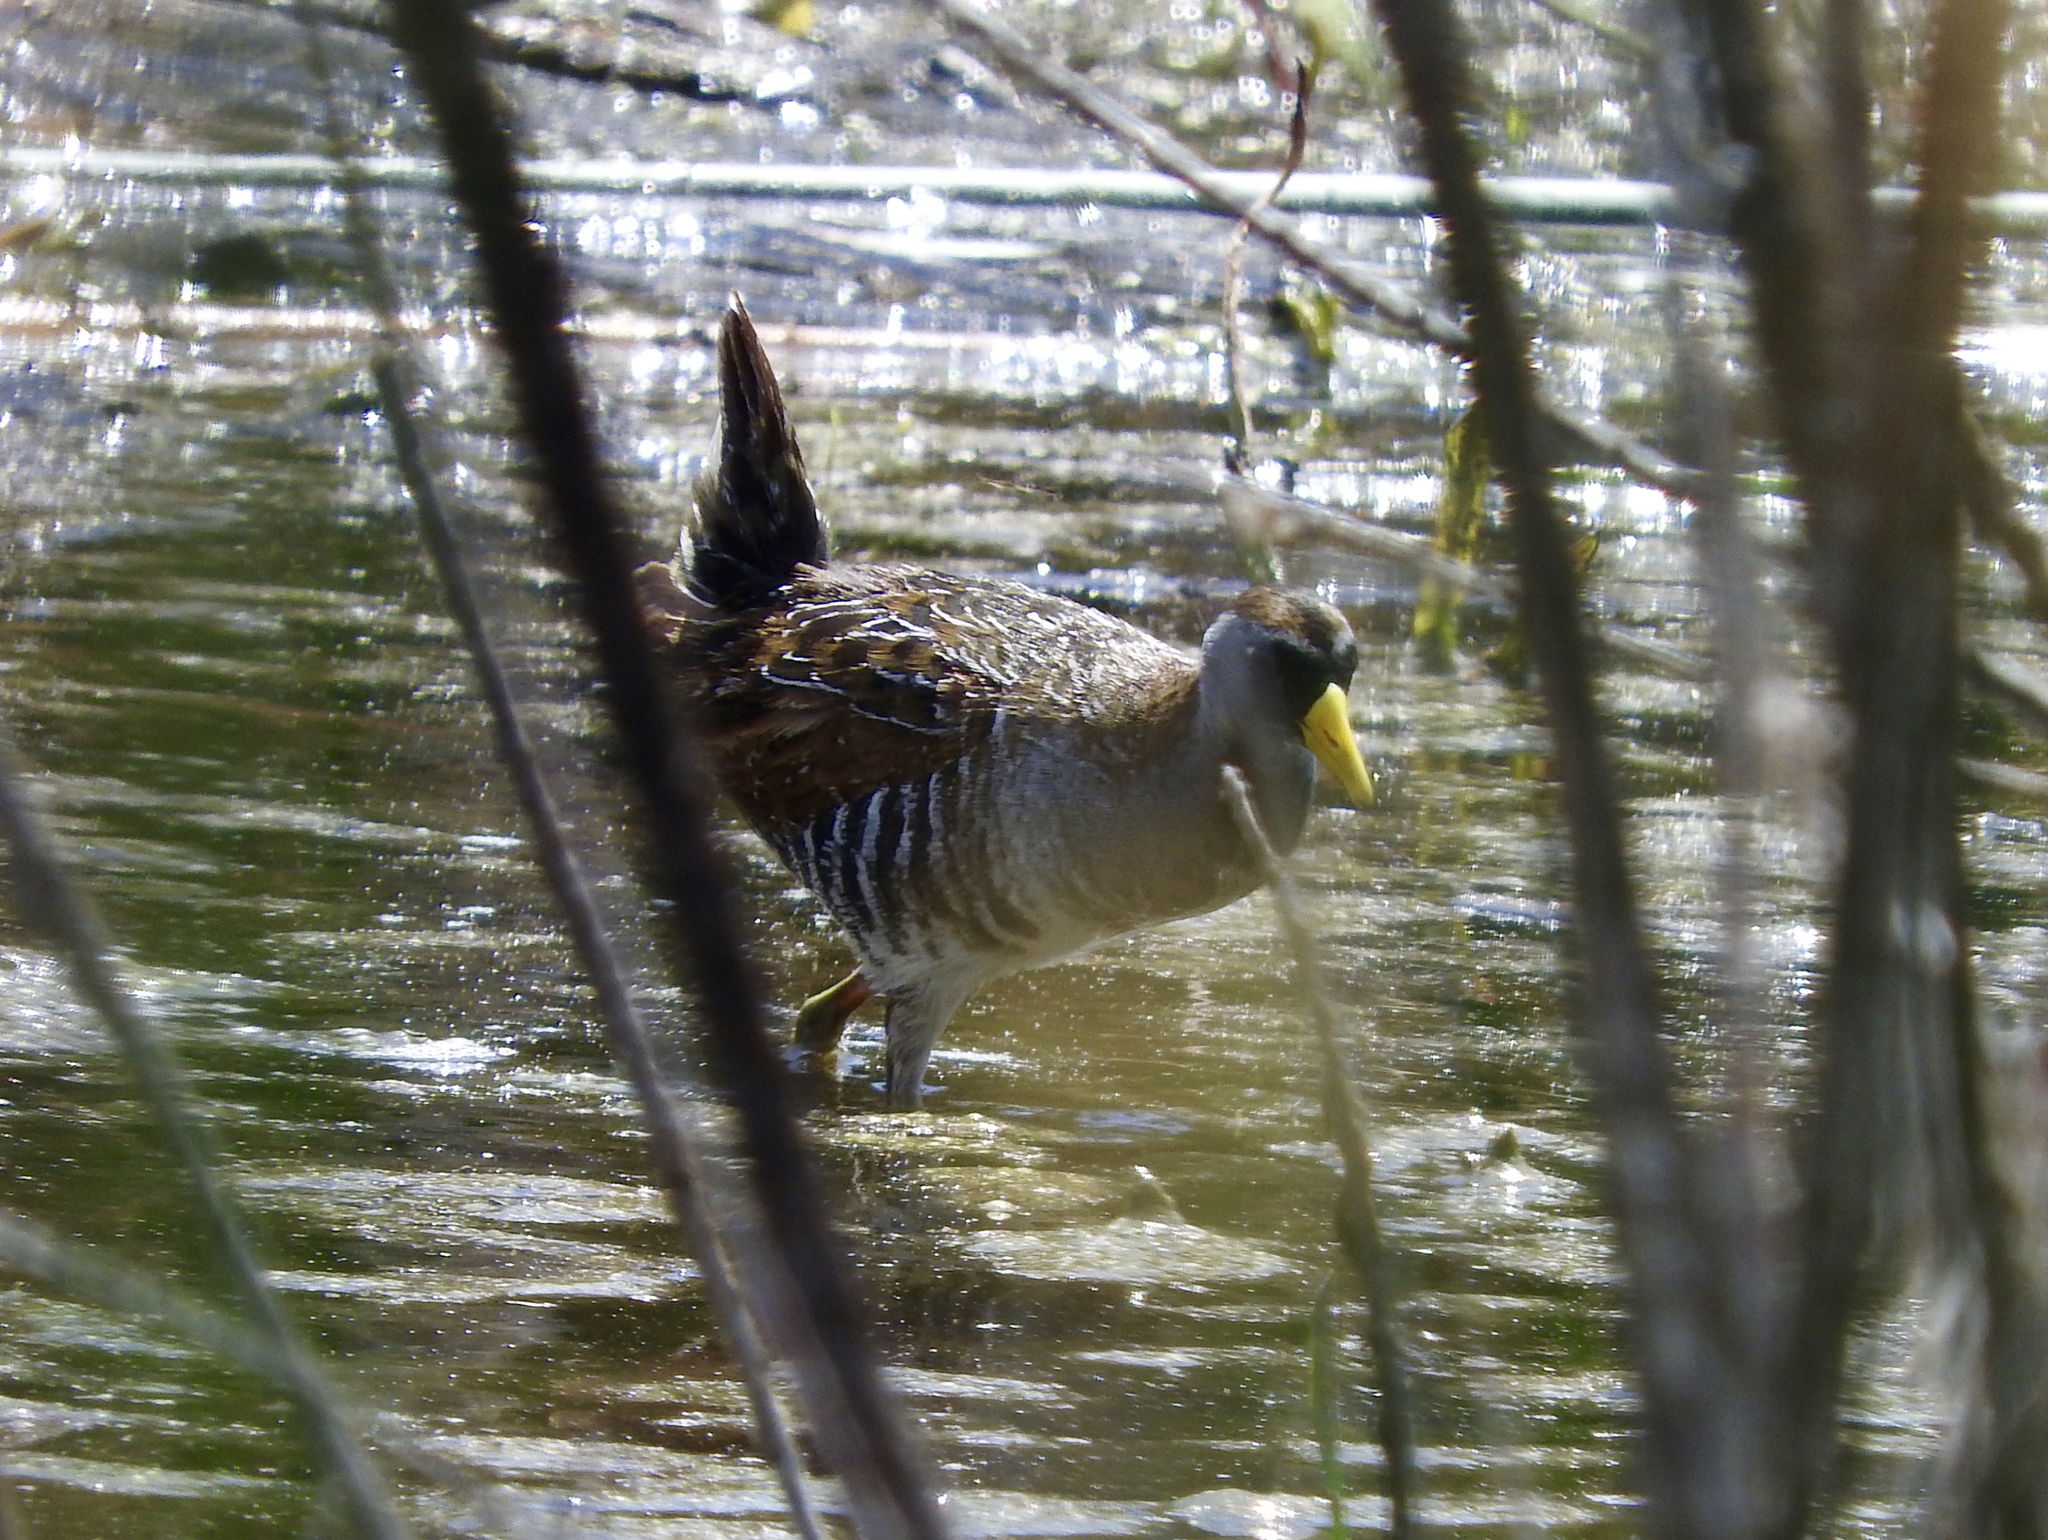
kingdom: Animalia
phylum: Chordata
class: Aves
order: Gruiformes
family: Rallidae
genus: Porzana
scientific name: Porzana carolina
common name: Sora
